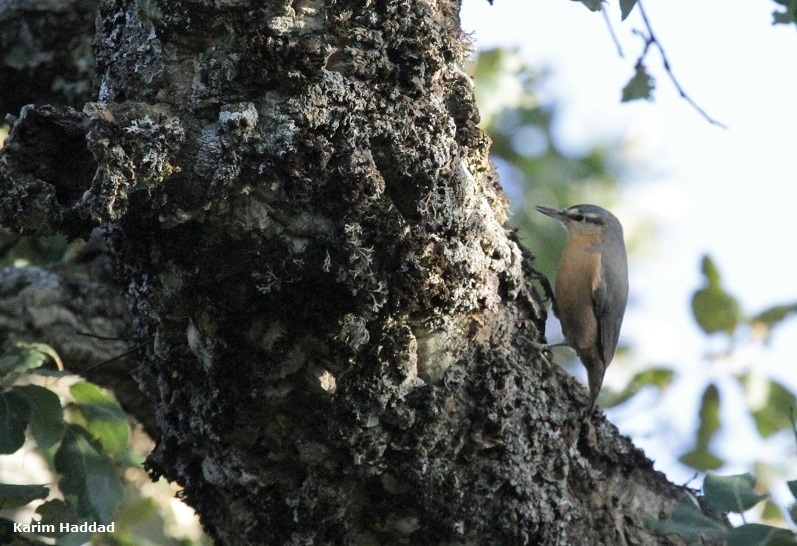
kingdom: Animalia
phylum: Chordata
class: Aves
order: Passeriformes
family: Sittidae
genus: Sitta
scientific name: Sitta ledanti
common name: Algerian nuthatch
